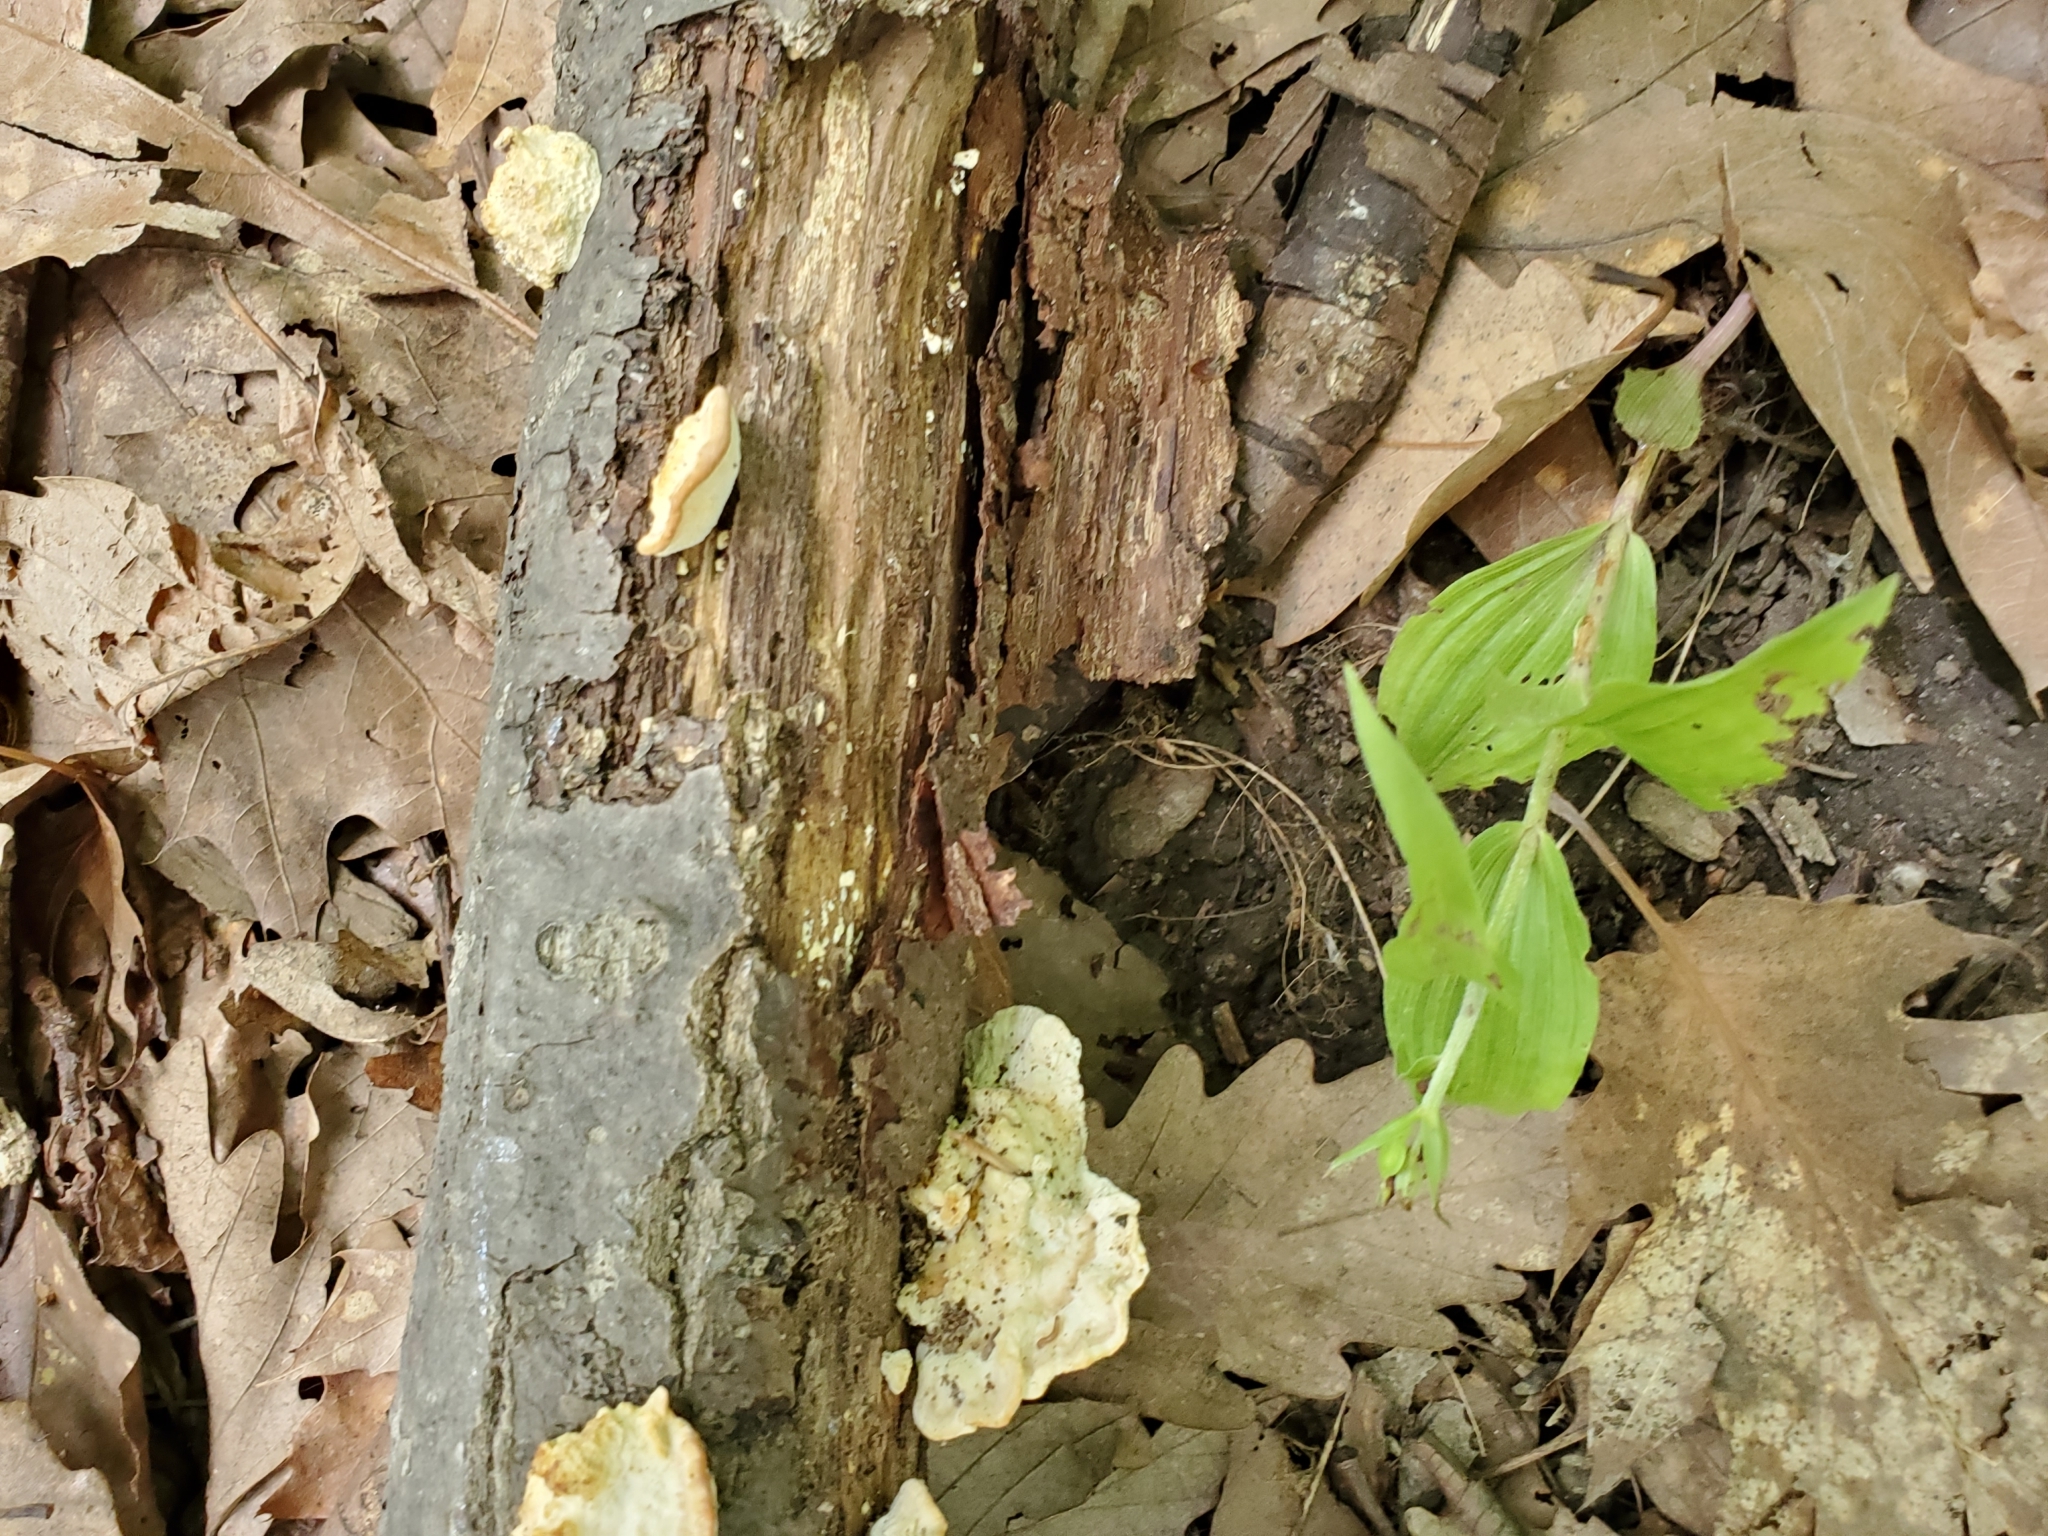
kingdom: Fungi
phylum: Basidiomycota
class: Agaricomycetes
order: Polyporales
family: Polyporaceae
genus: Trametes
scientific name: Trametes lactinea
